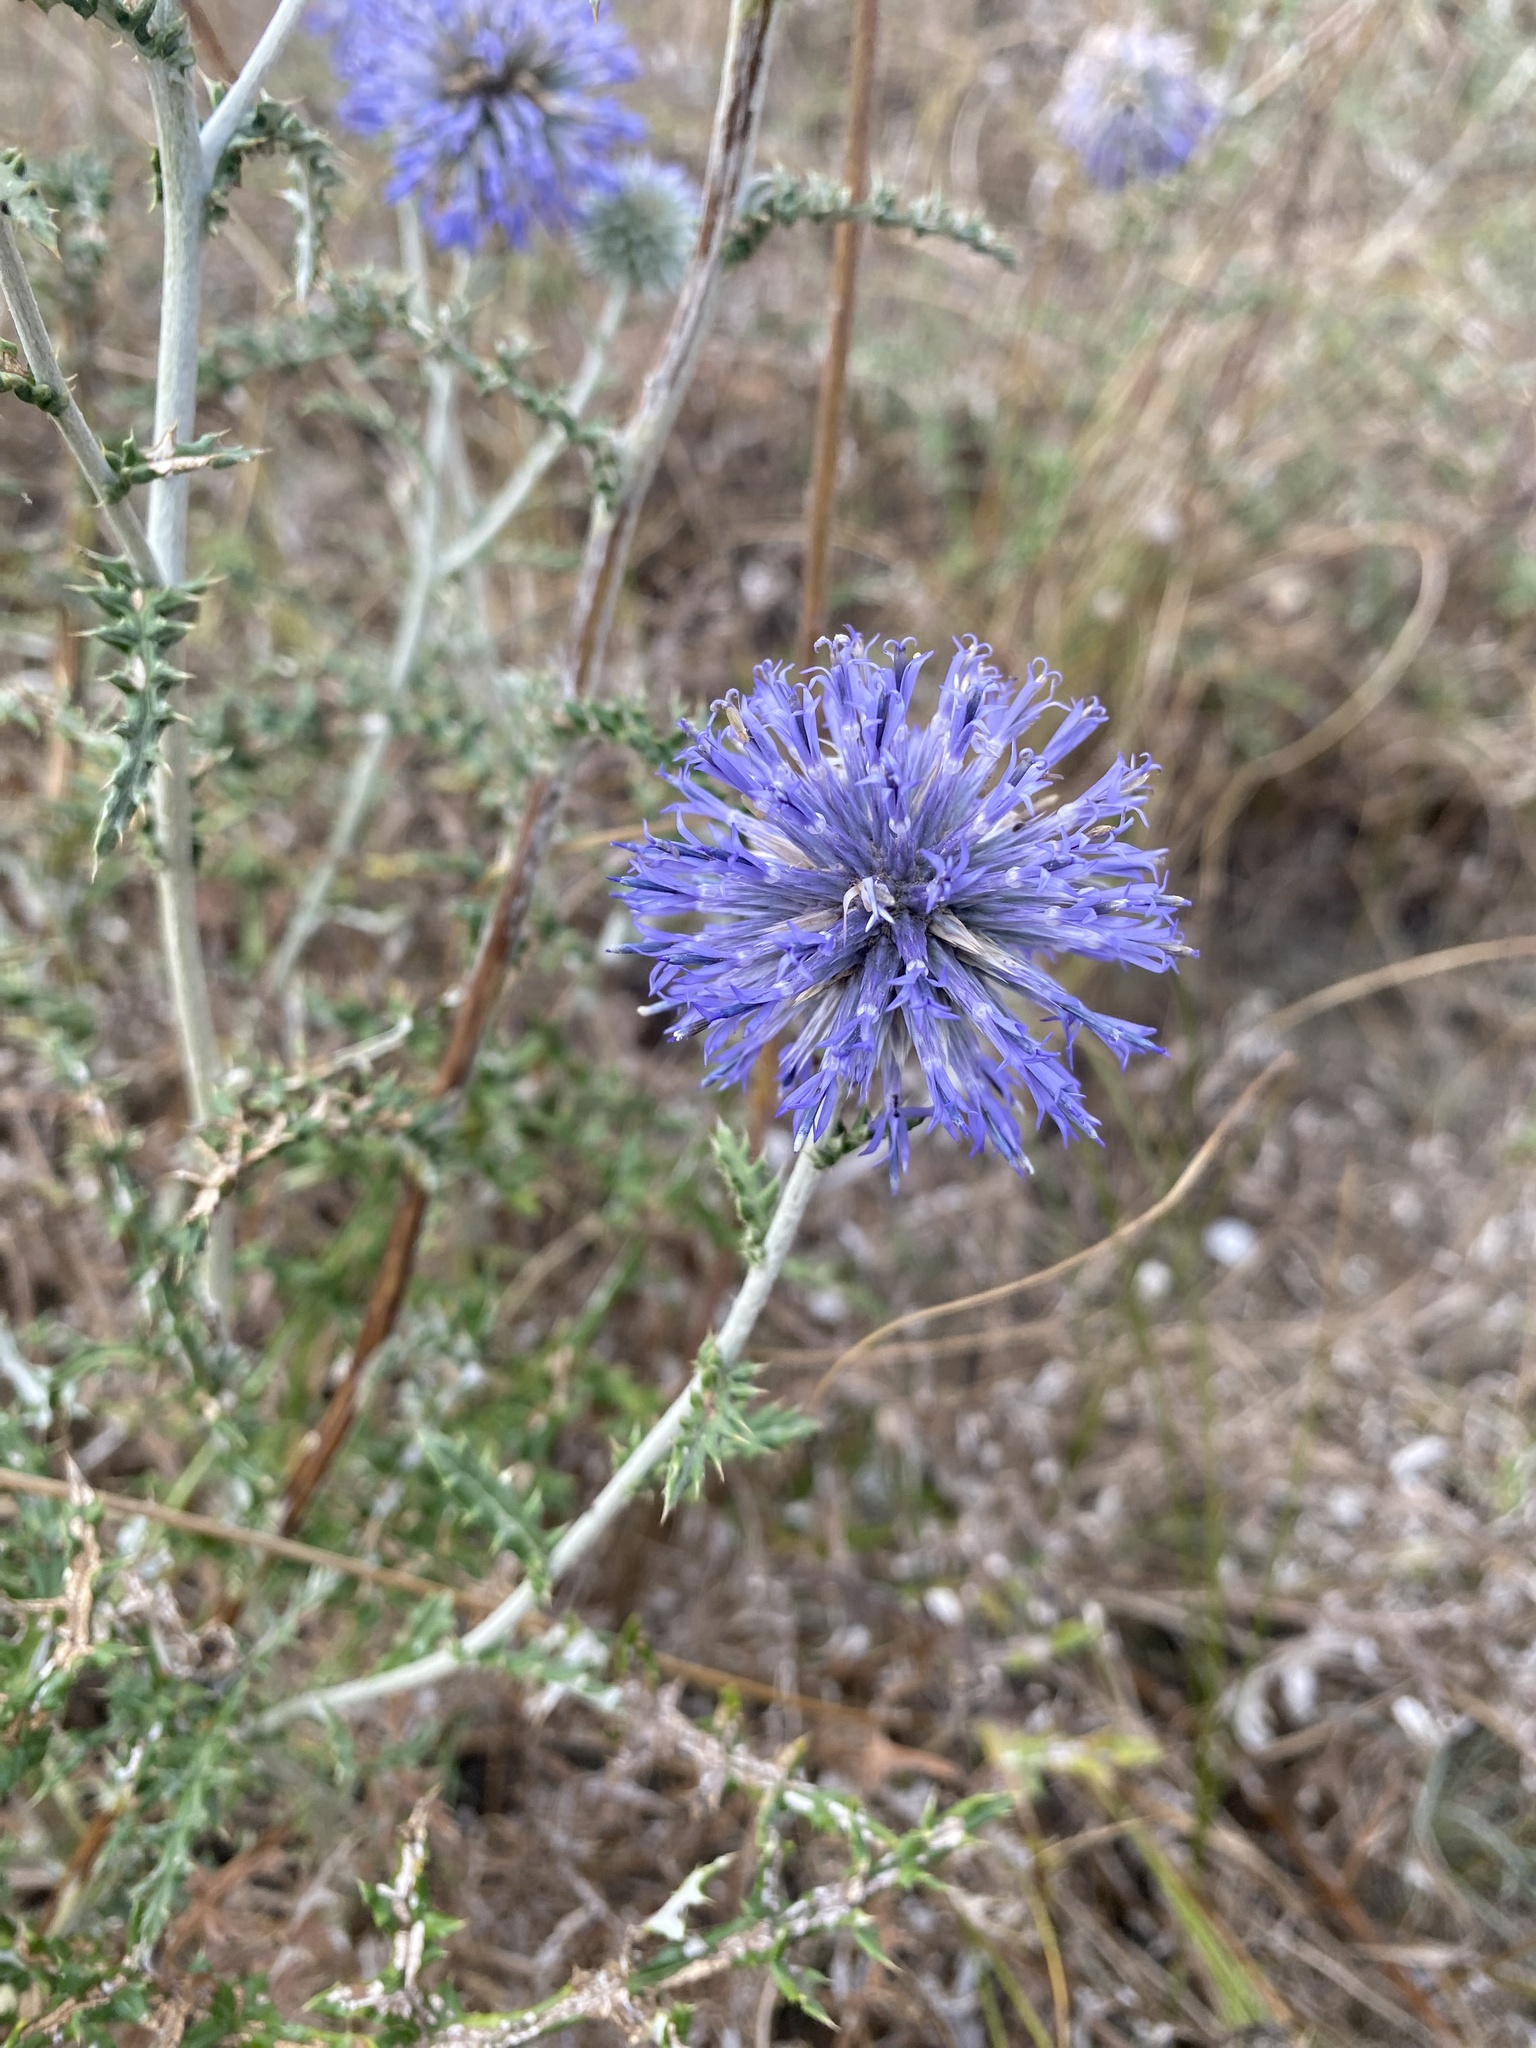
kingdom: Plantae
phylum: Tracheophyta
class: Magnoliopsida
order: Asterales
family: Asteraceae
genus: Echinops
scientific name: Echinops ritro
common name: Globe thistle
